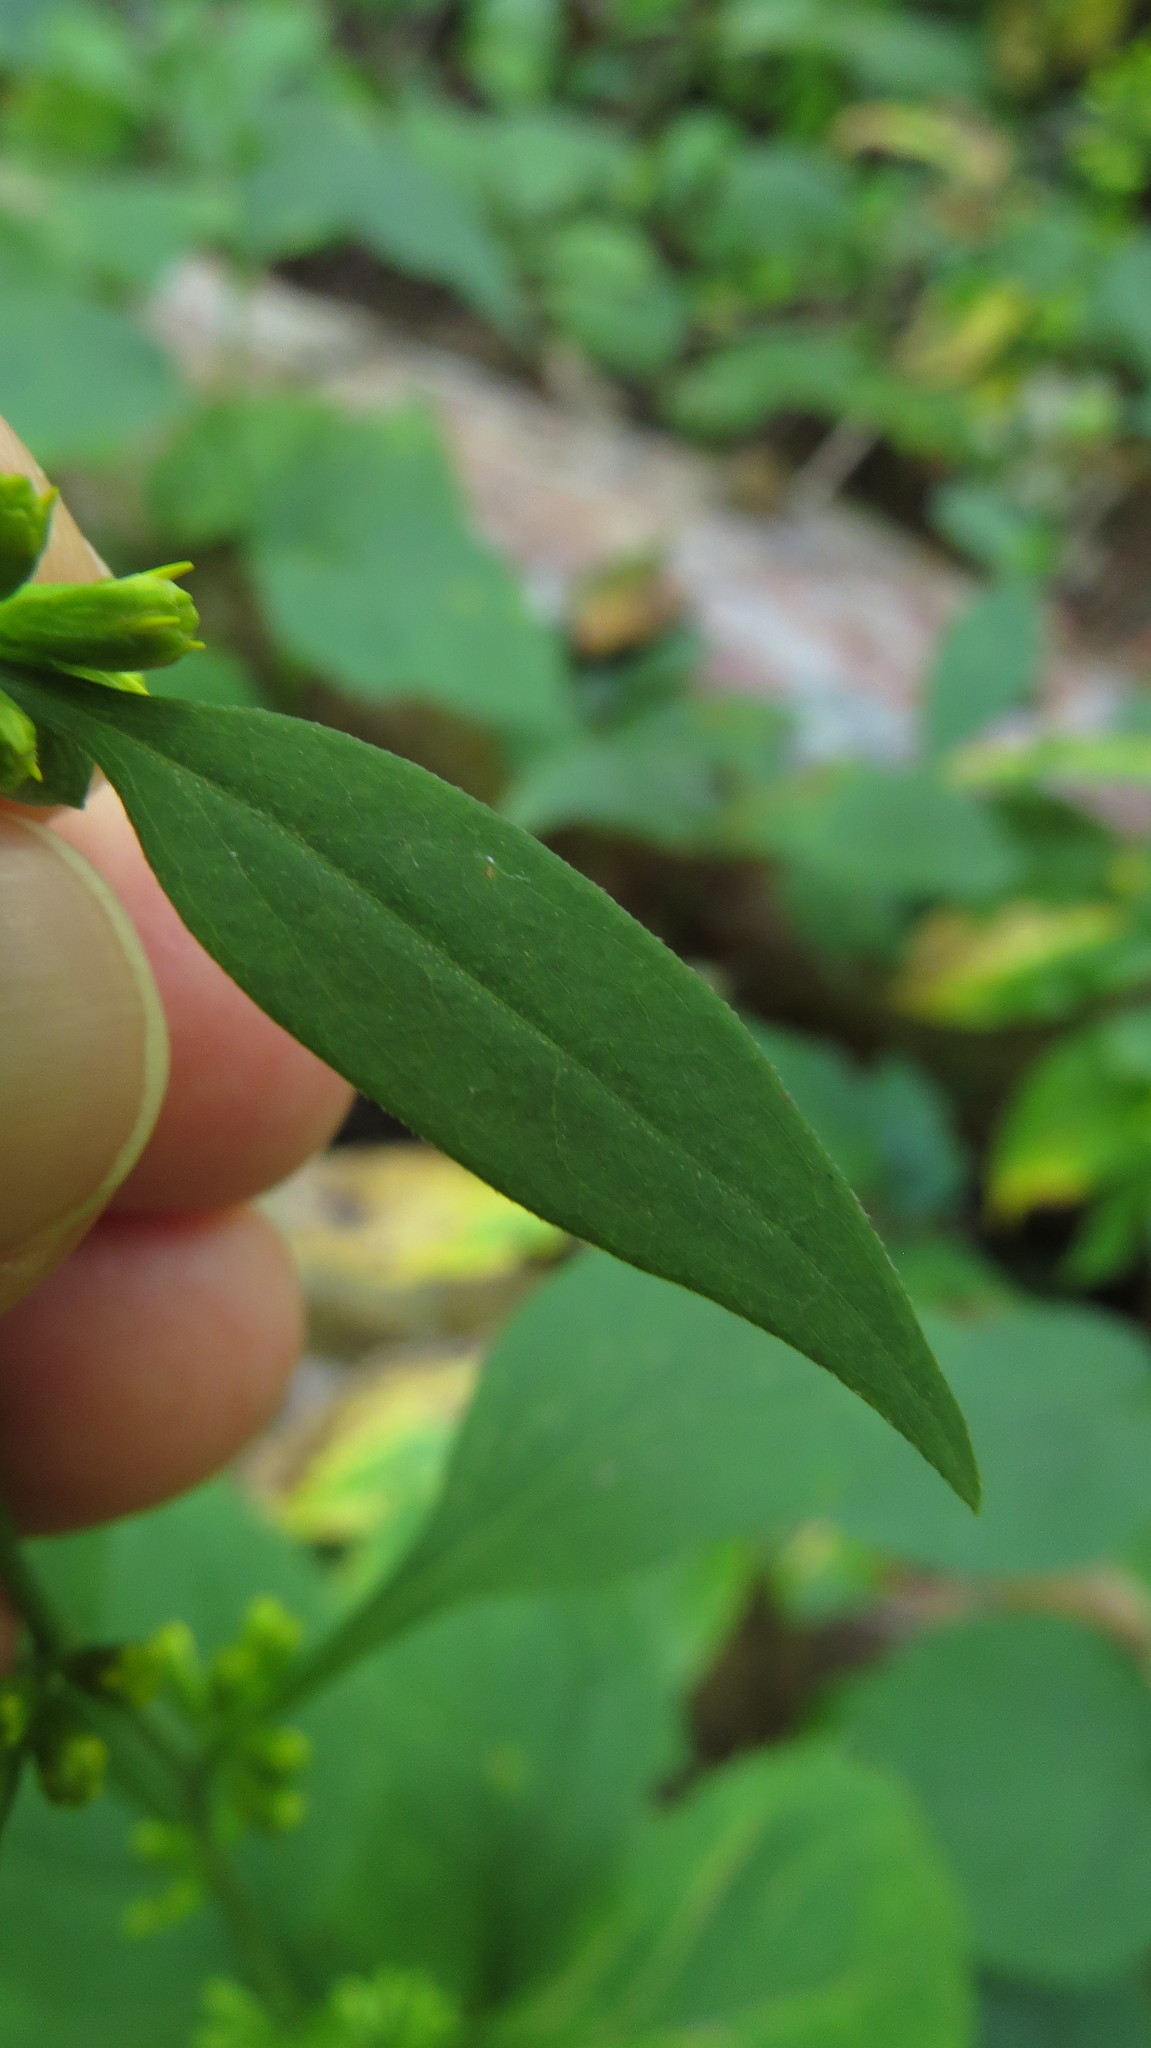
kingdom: Plantae
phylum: Tracheophyta
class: Magnoliopsida
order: Asterales
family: Asteraceae
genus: Solidago
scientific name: Solidago flexicaulis
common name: Zig-zag goldenrod
